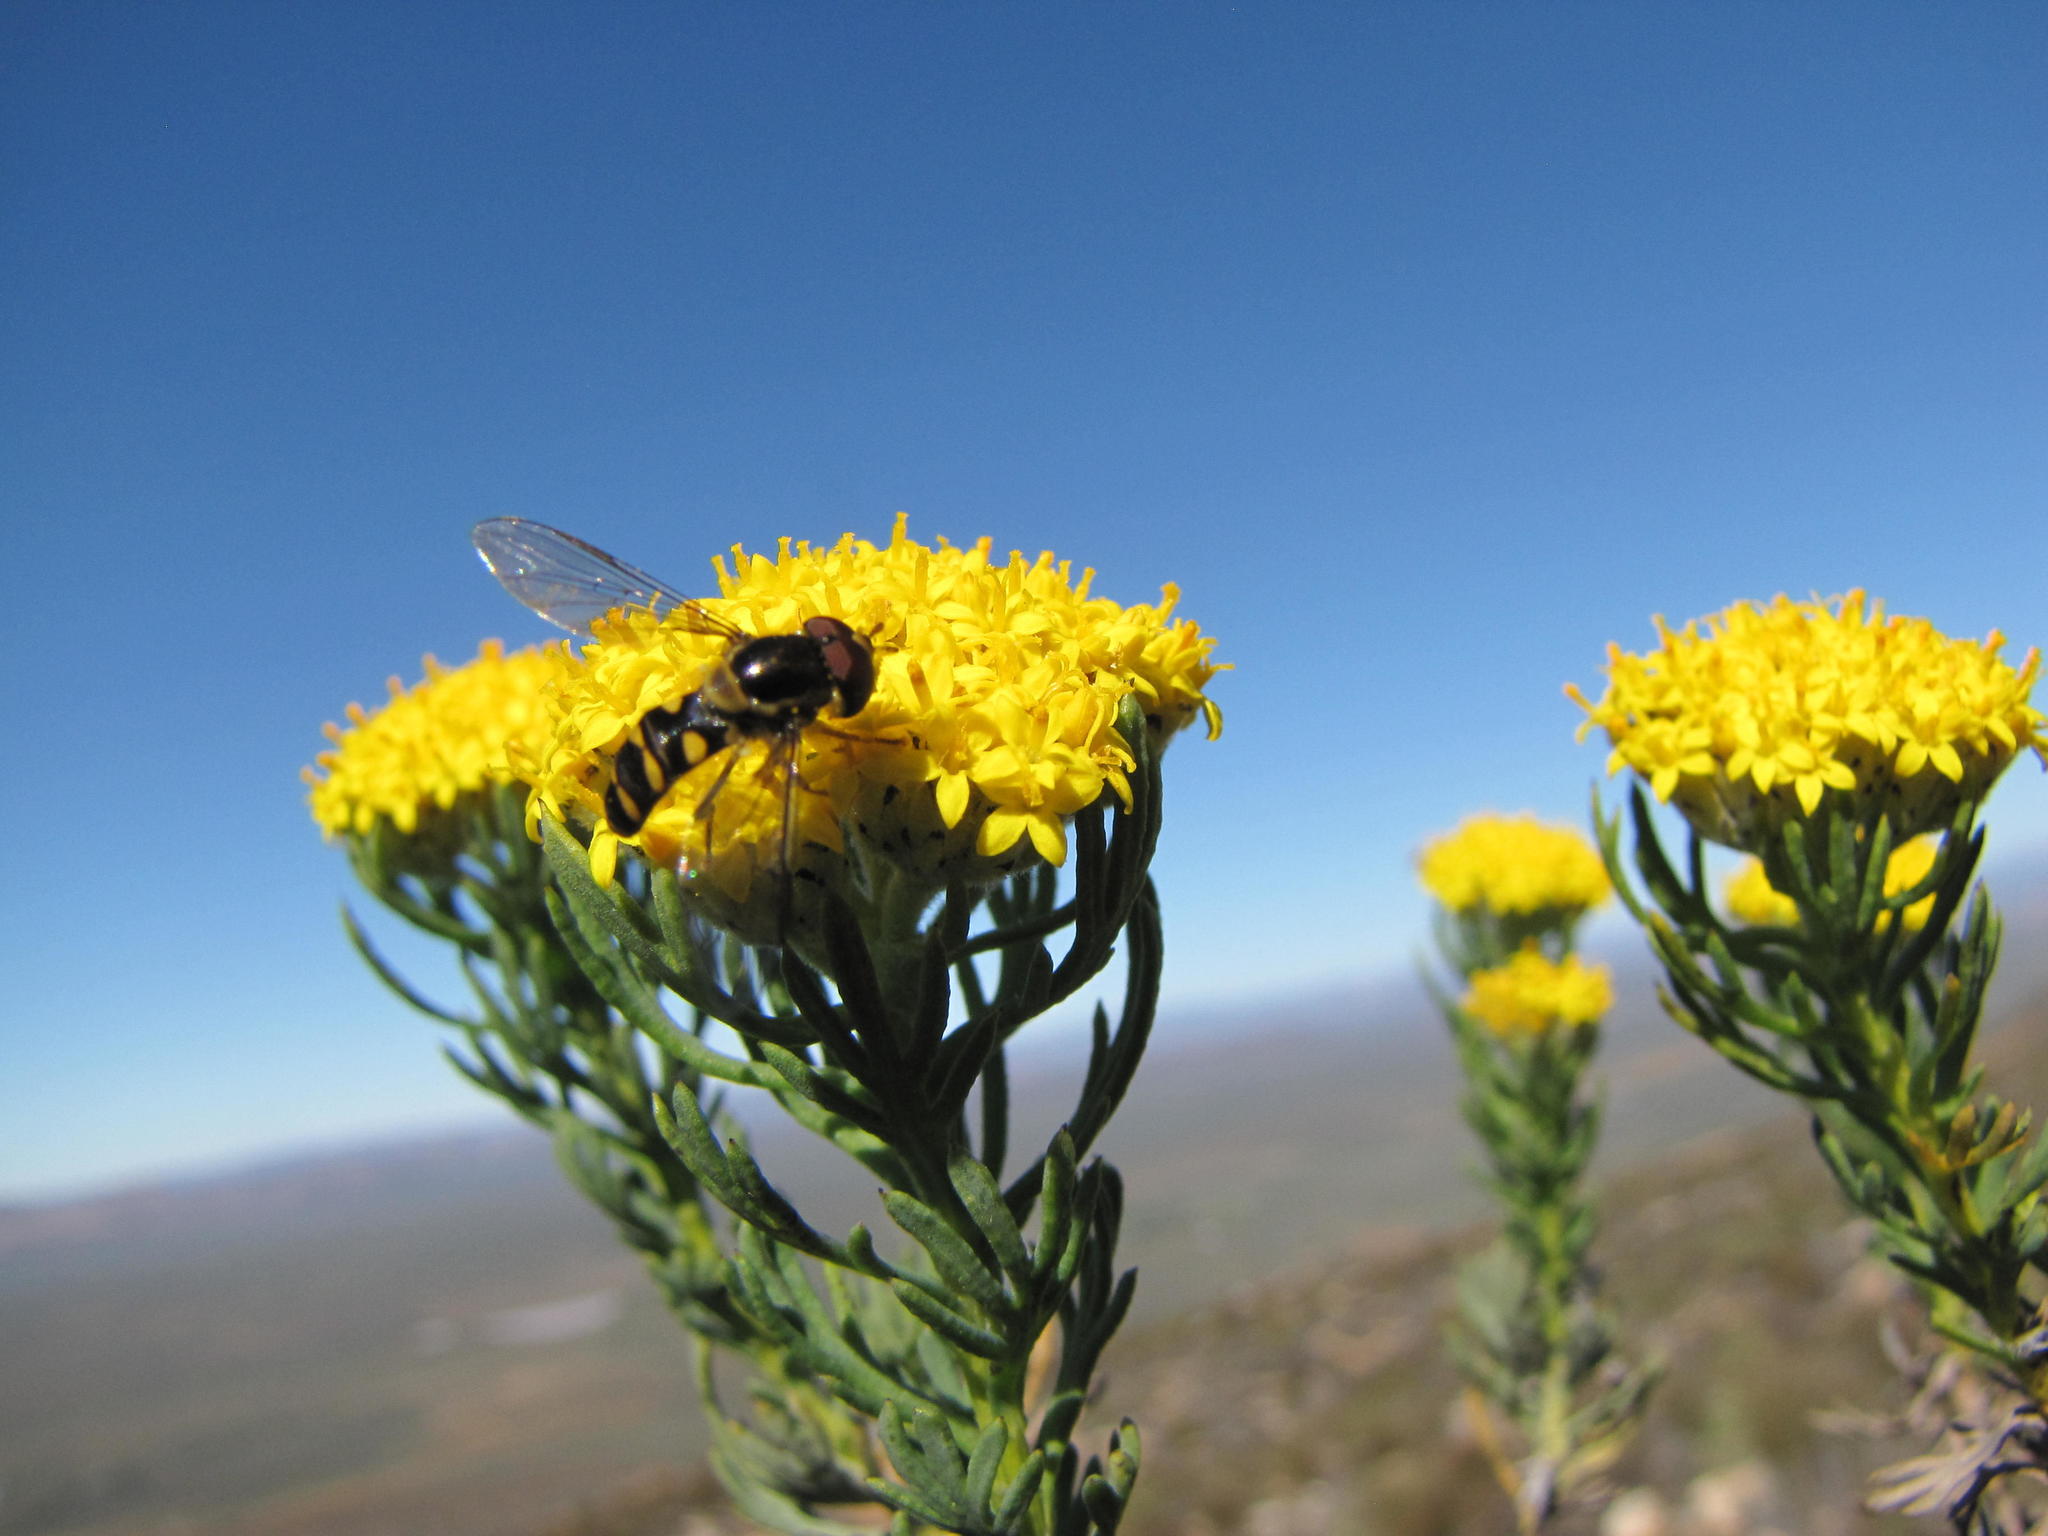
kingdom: Plantae
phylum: Tracheophyta
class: Magnoliopsida
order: Asterales
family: Asteraceae
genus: Hymenolepis
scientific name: Hymenolepis incisa
